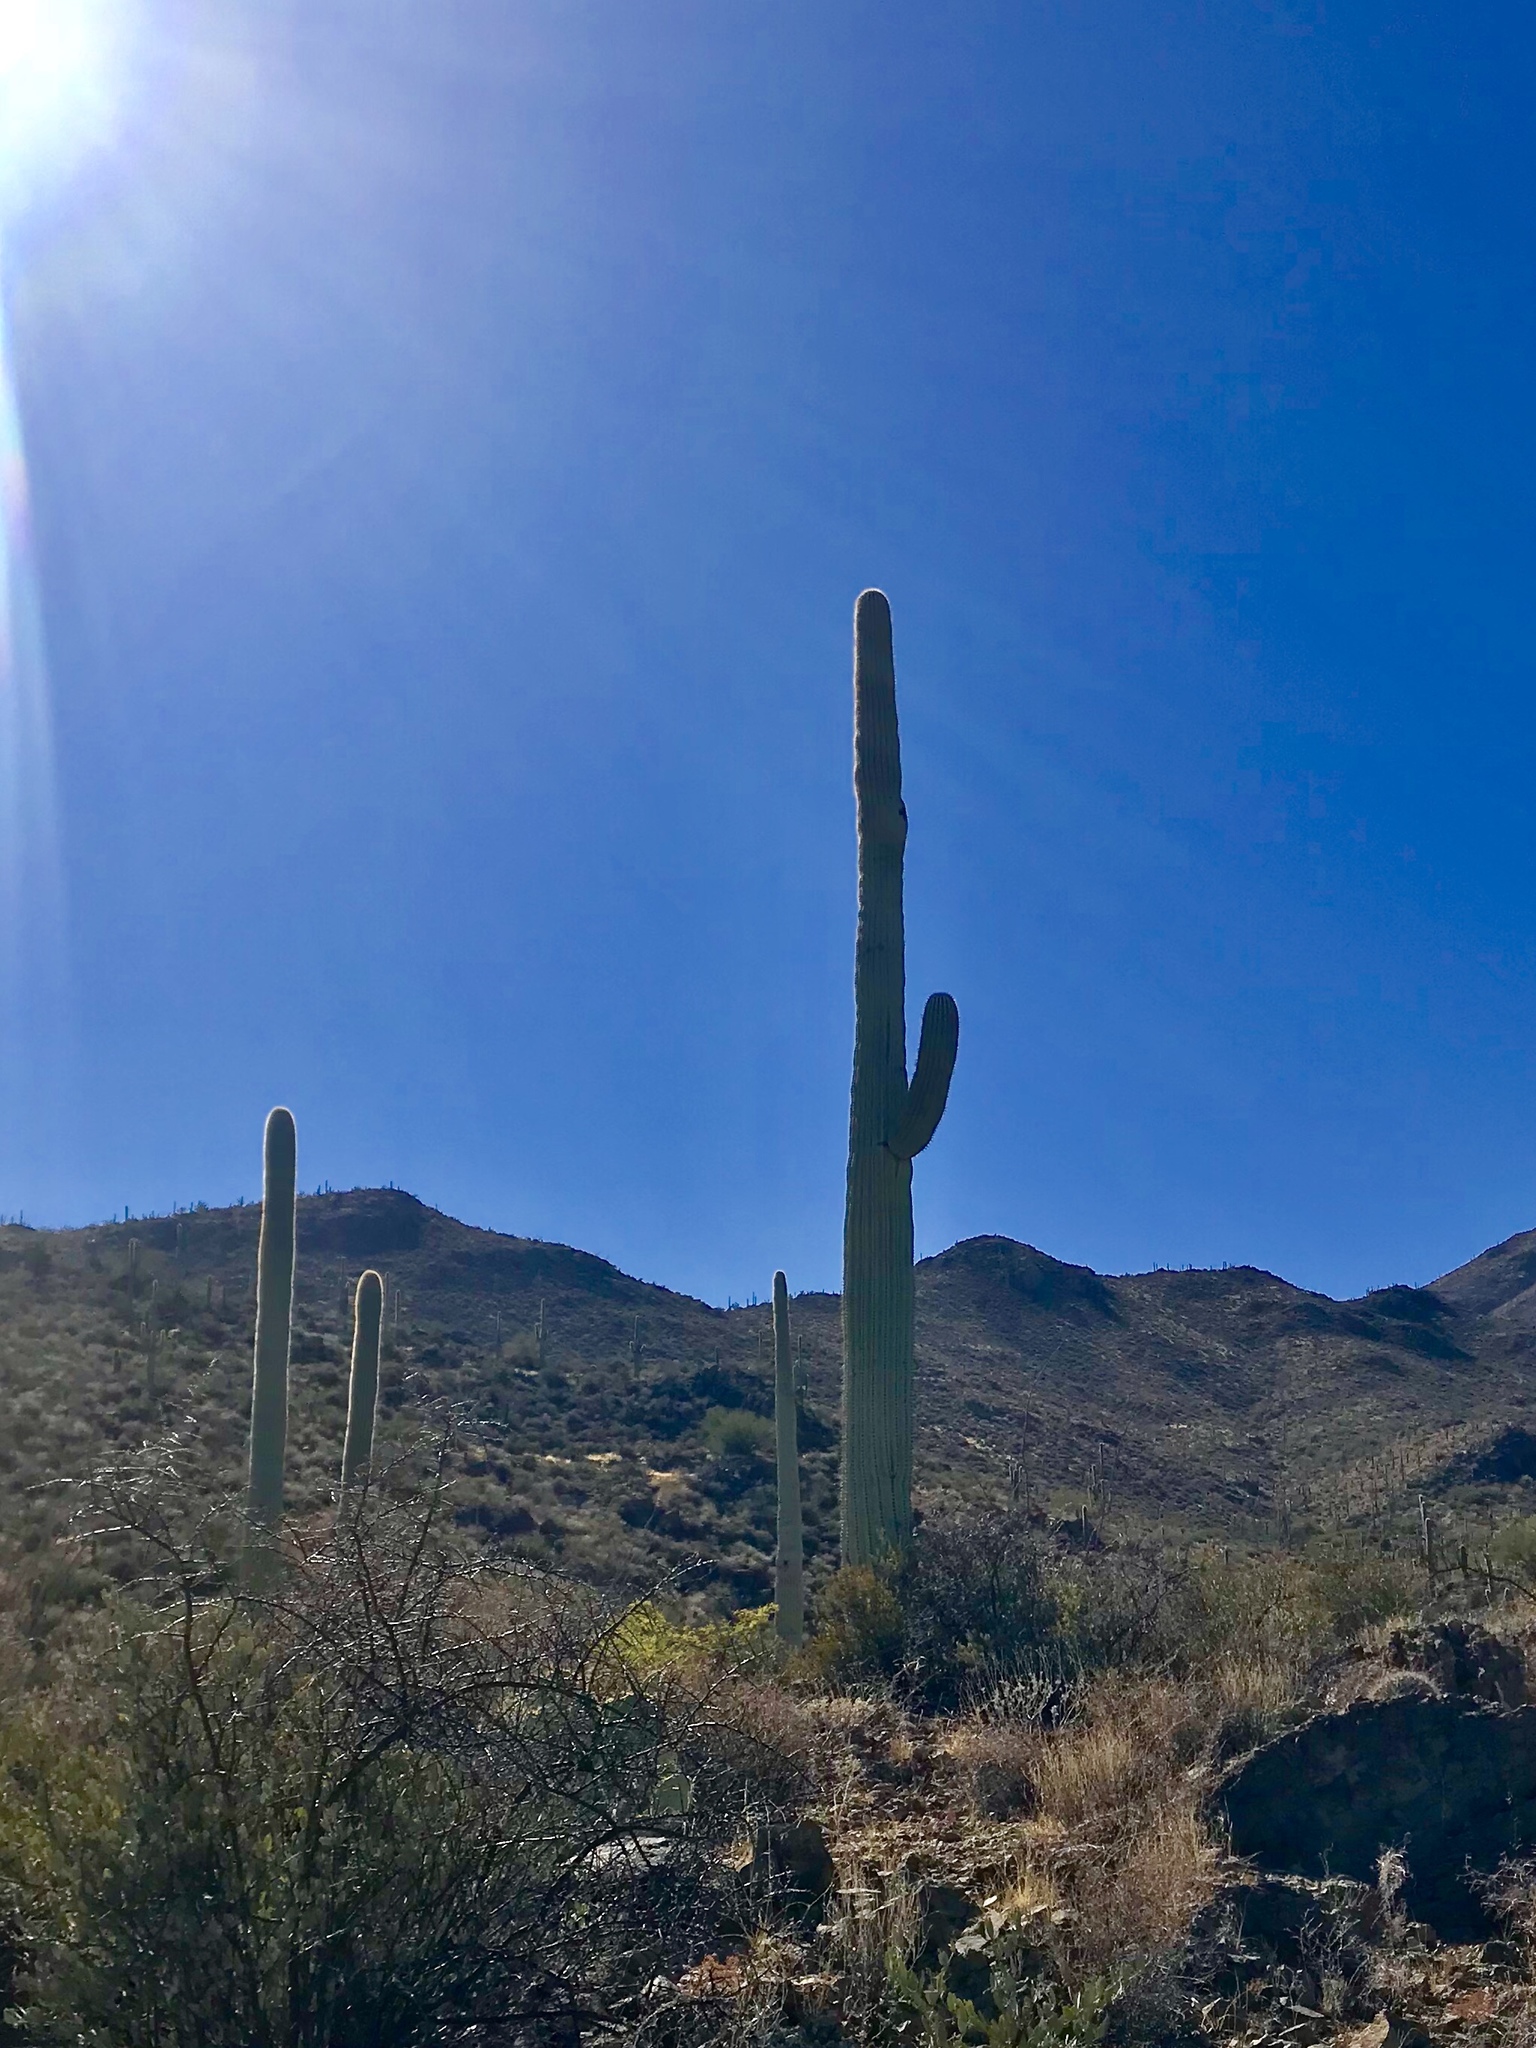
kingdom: Plantae
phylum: Tracheophyta
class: Magnoliopsida
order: Caryophyllales
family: Cactaceae
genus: Carnegiea
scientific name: Carnegiea gigantea
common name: Saguaro
